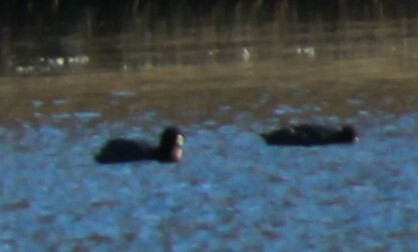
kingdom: Animalia
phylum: Chordata
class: Aves
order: Gruiformes
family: Rallidae
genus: Fulica
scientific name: Fulica armillata
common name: Red-gartered coot
